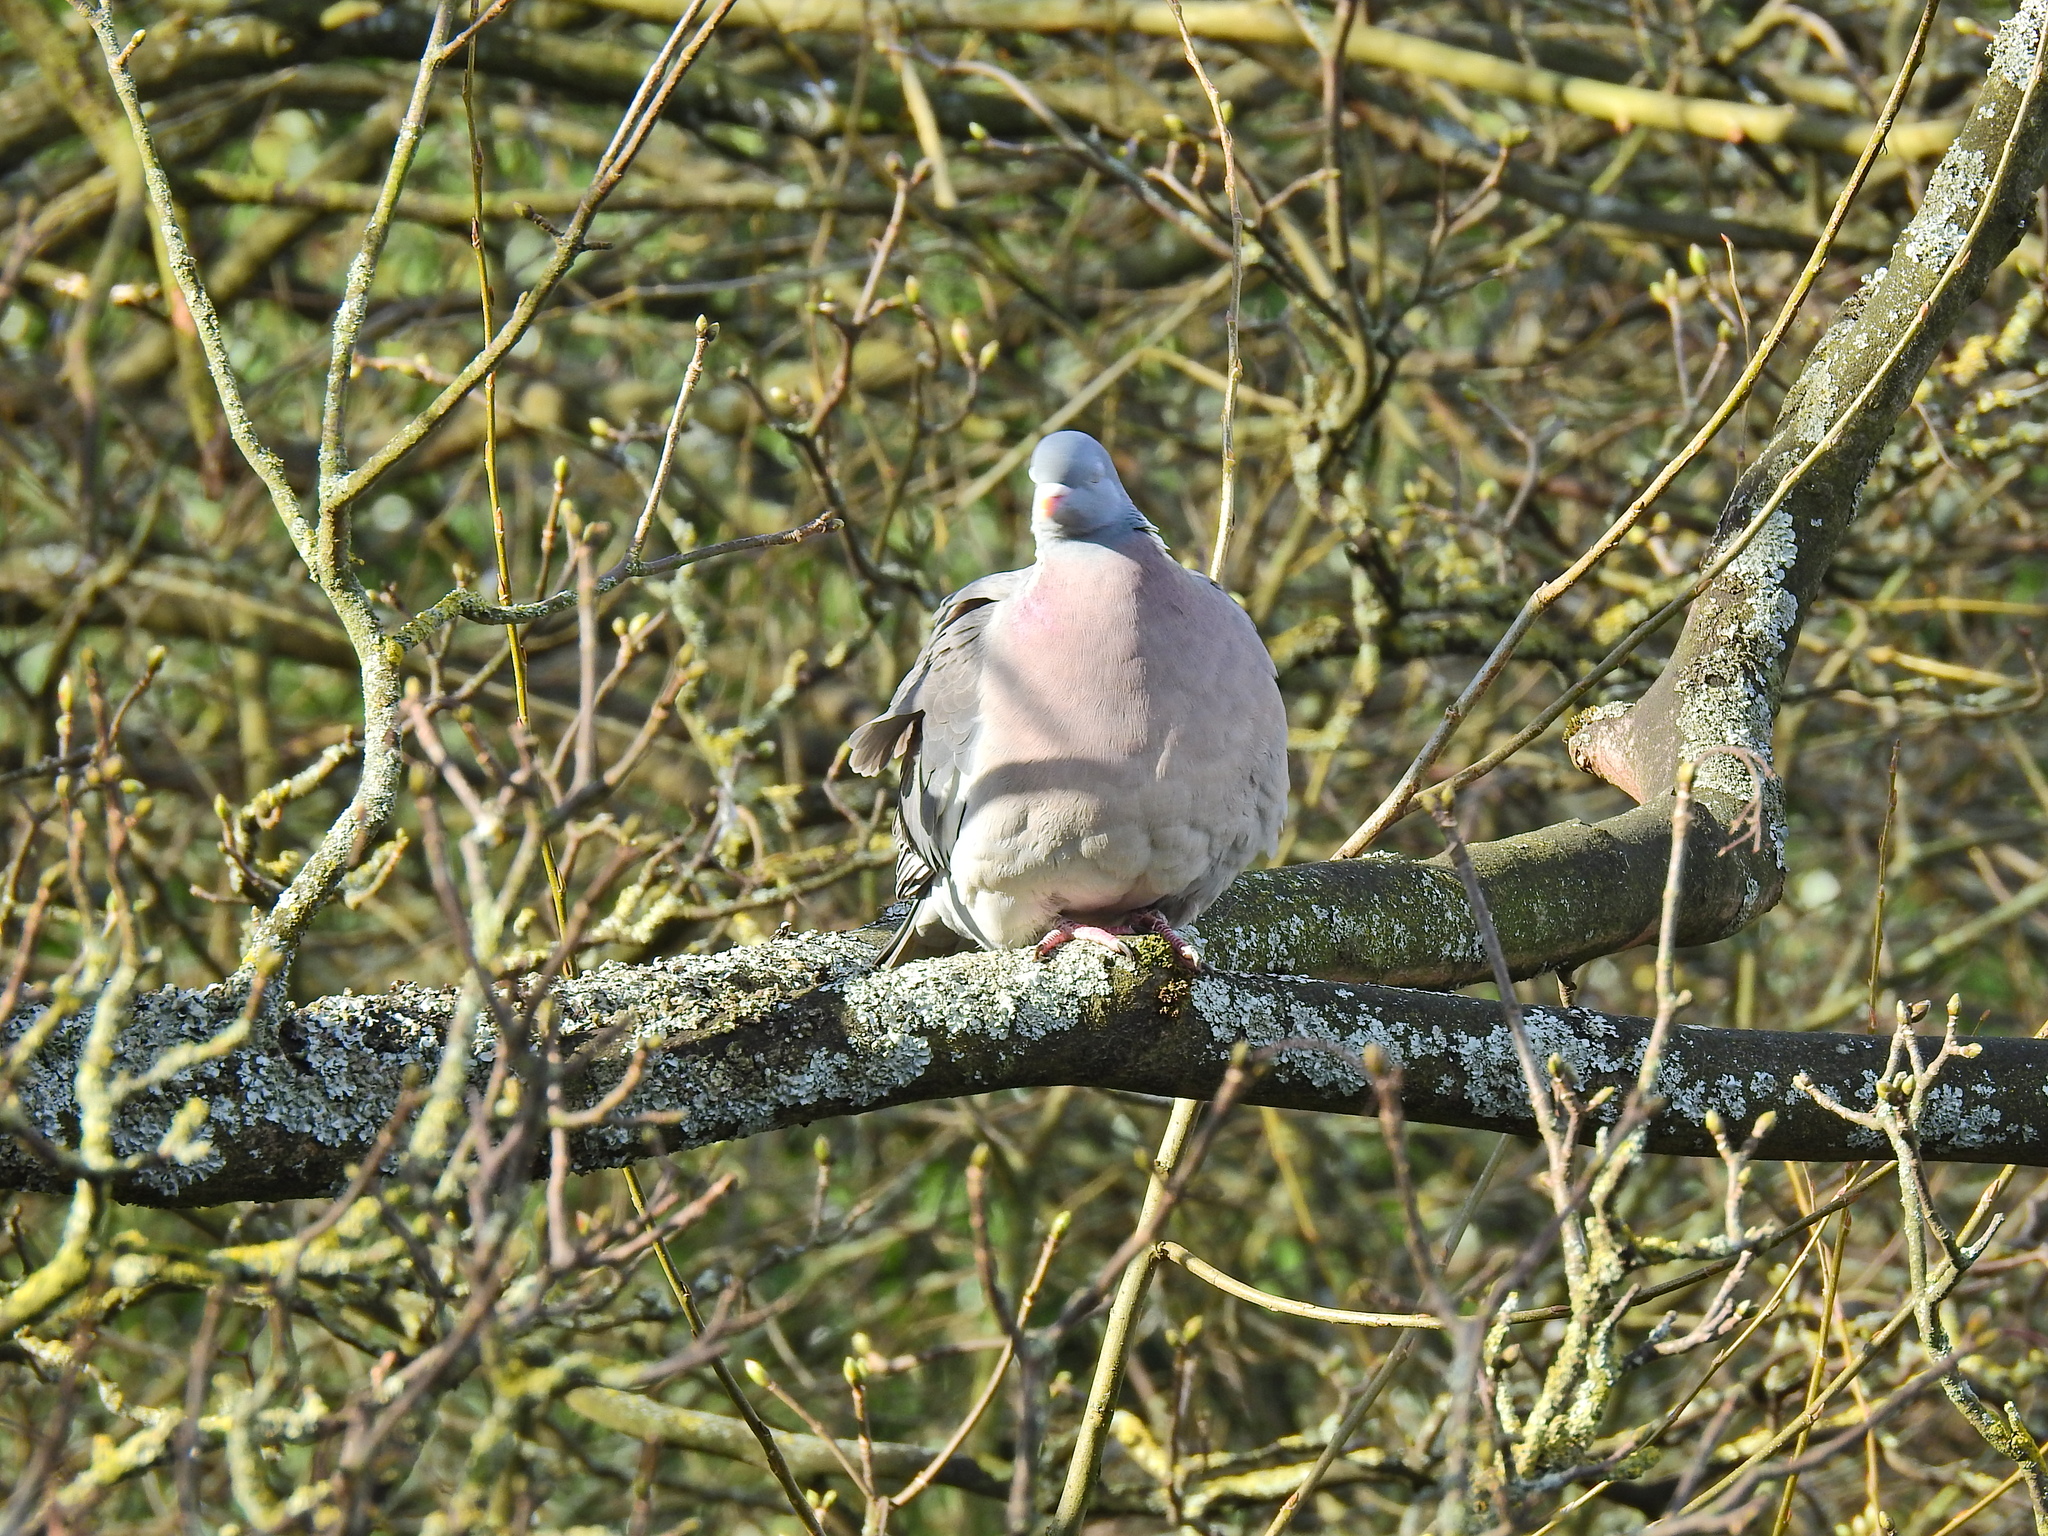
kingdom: Animalia
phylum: Chordata
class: Aves
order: Columbiformes
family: Columbidae
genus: Columba
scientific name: Columba palumbus
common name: Common wood pigeon
